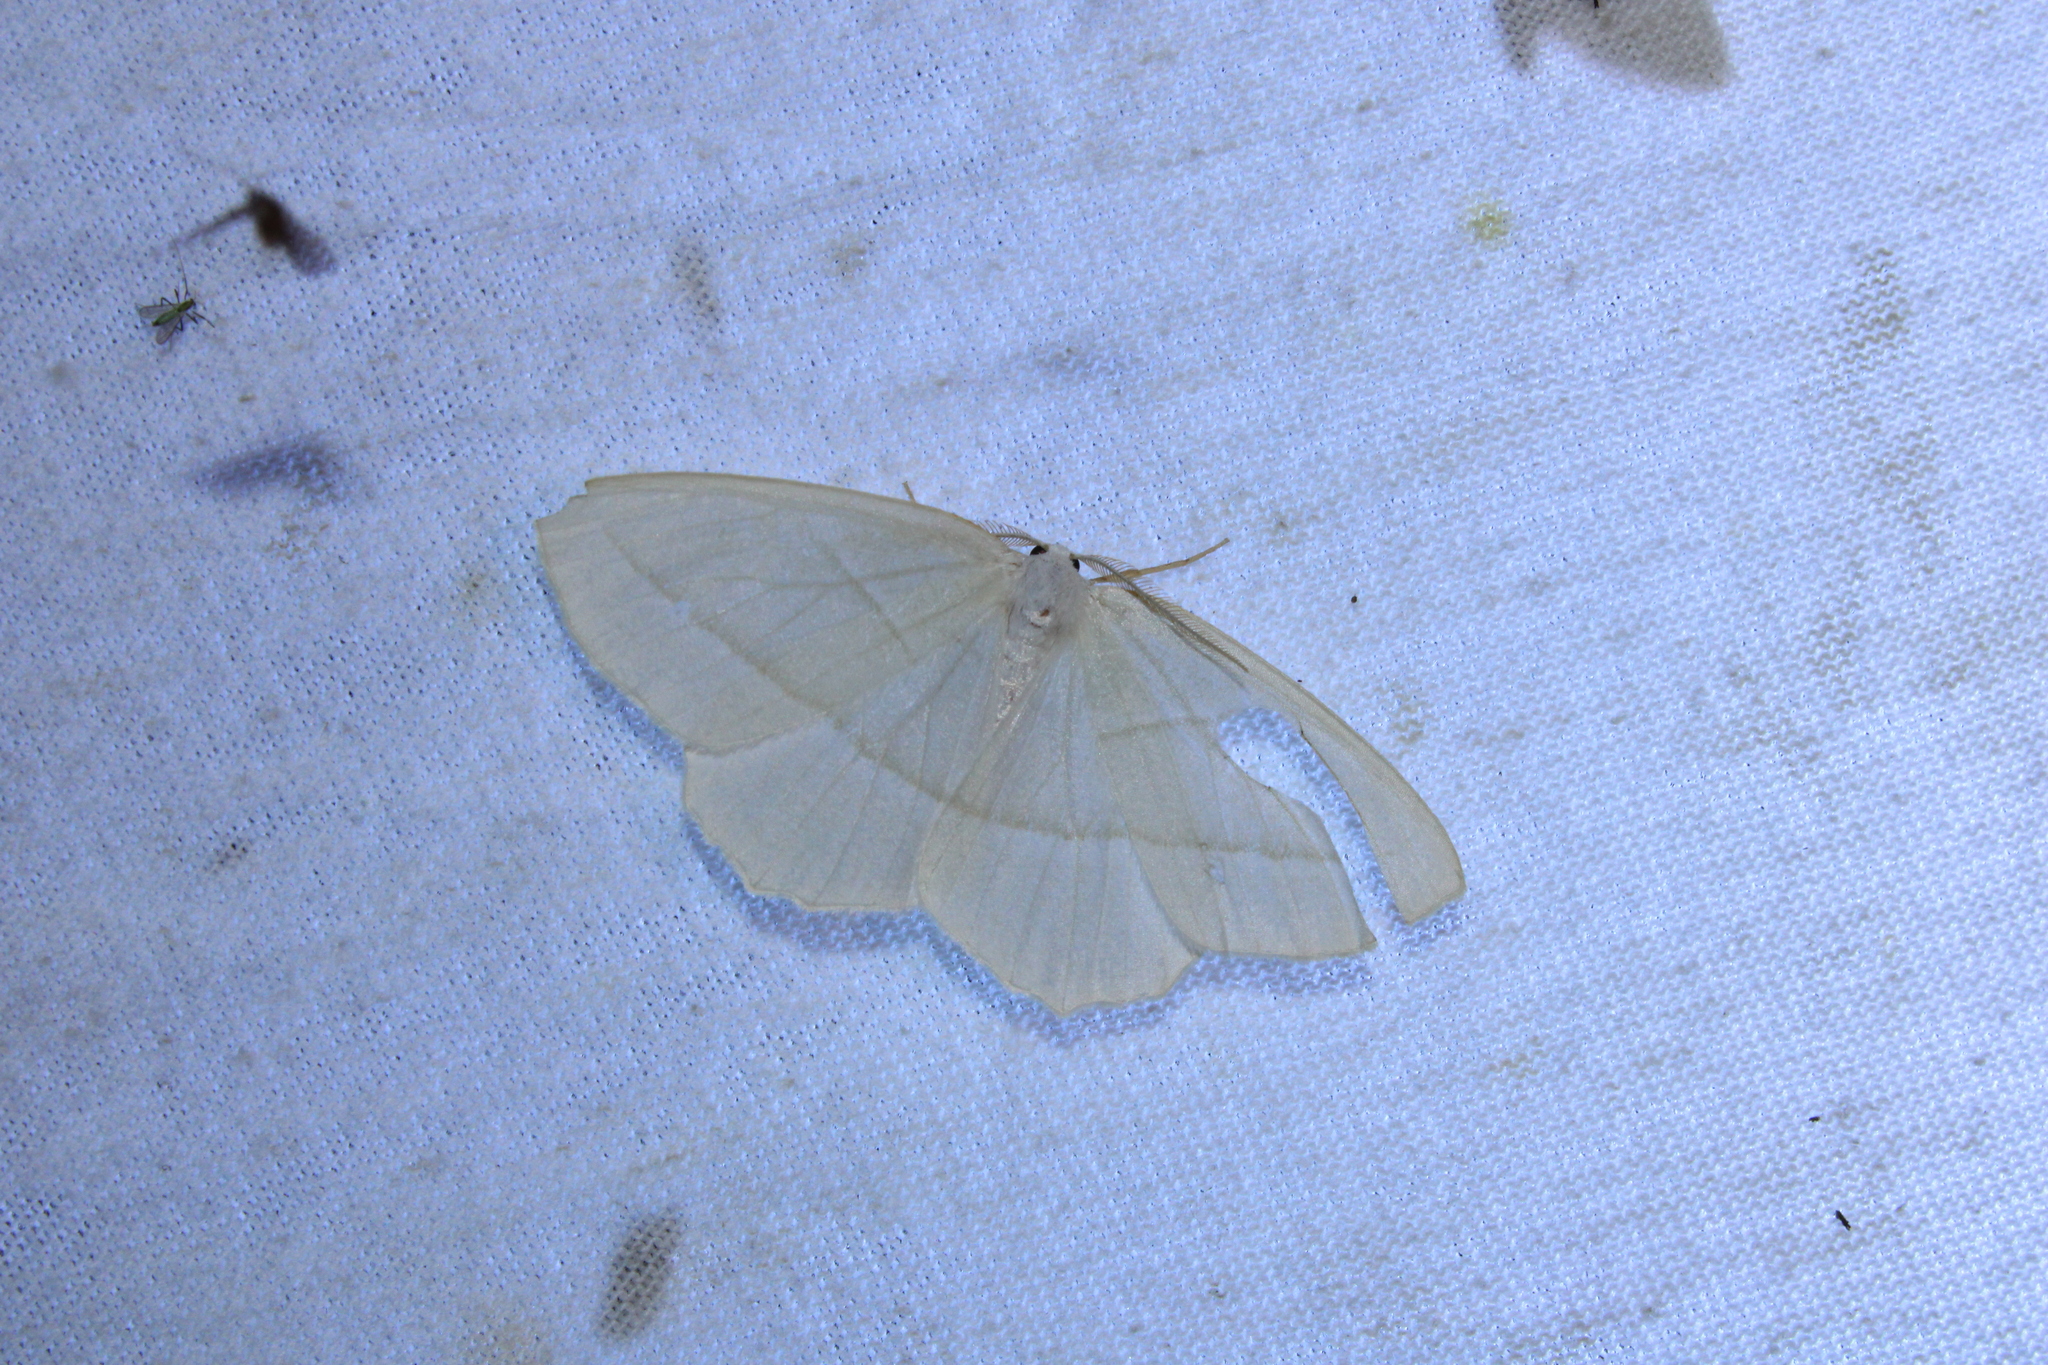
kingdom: Animalia
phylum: Arthropoda
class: Insecta
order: Lepidoptera
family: Geometridae
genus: Campaea
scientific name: Campaea perlata
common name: Fringed looper
